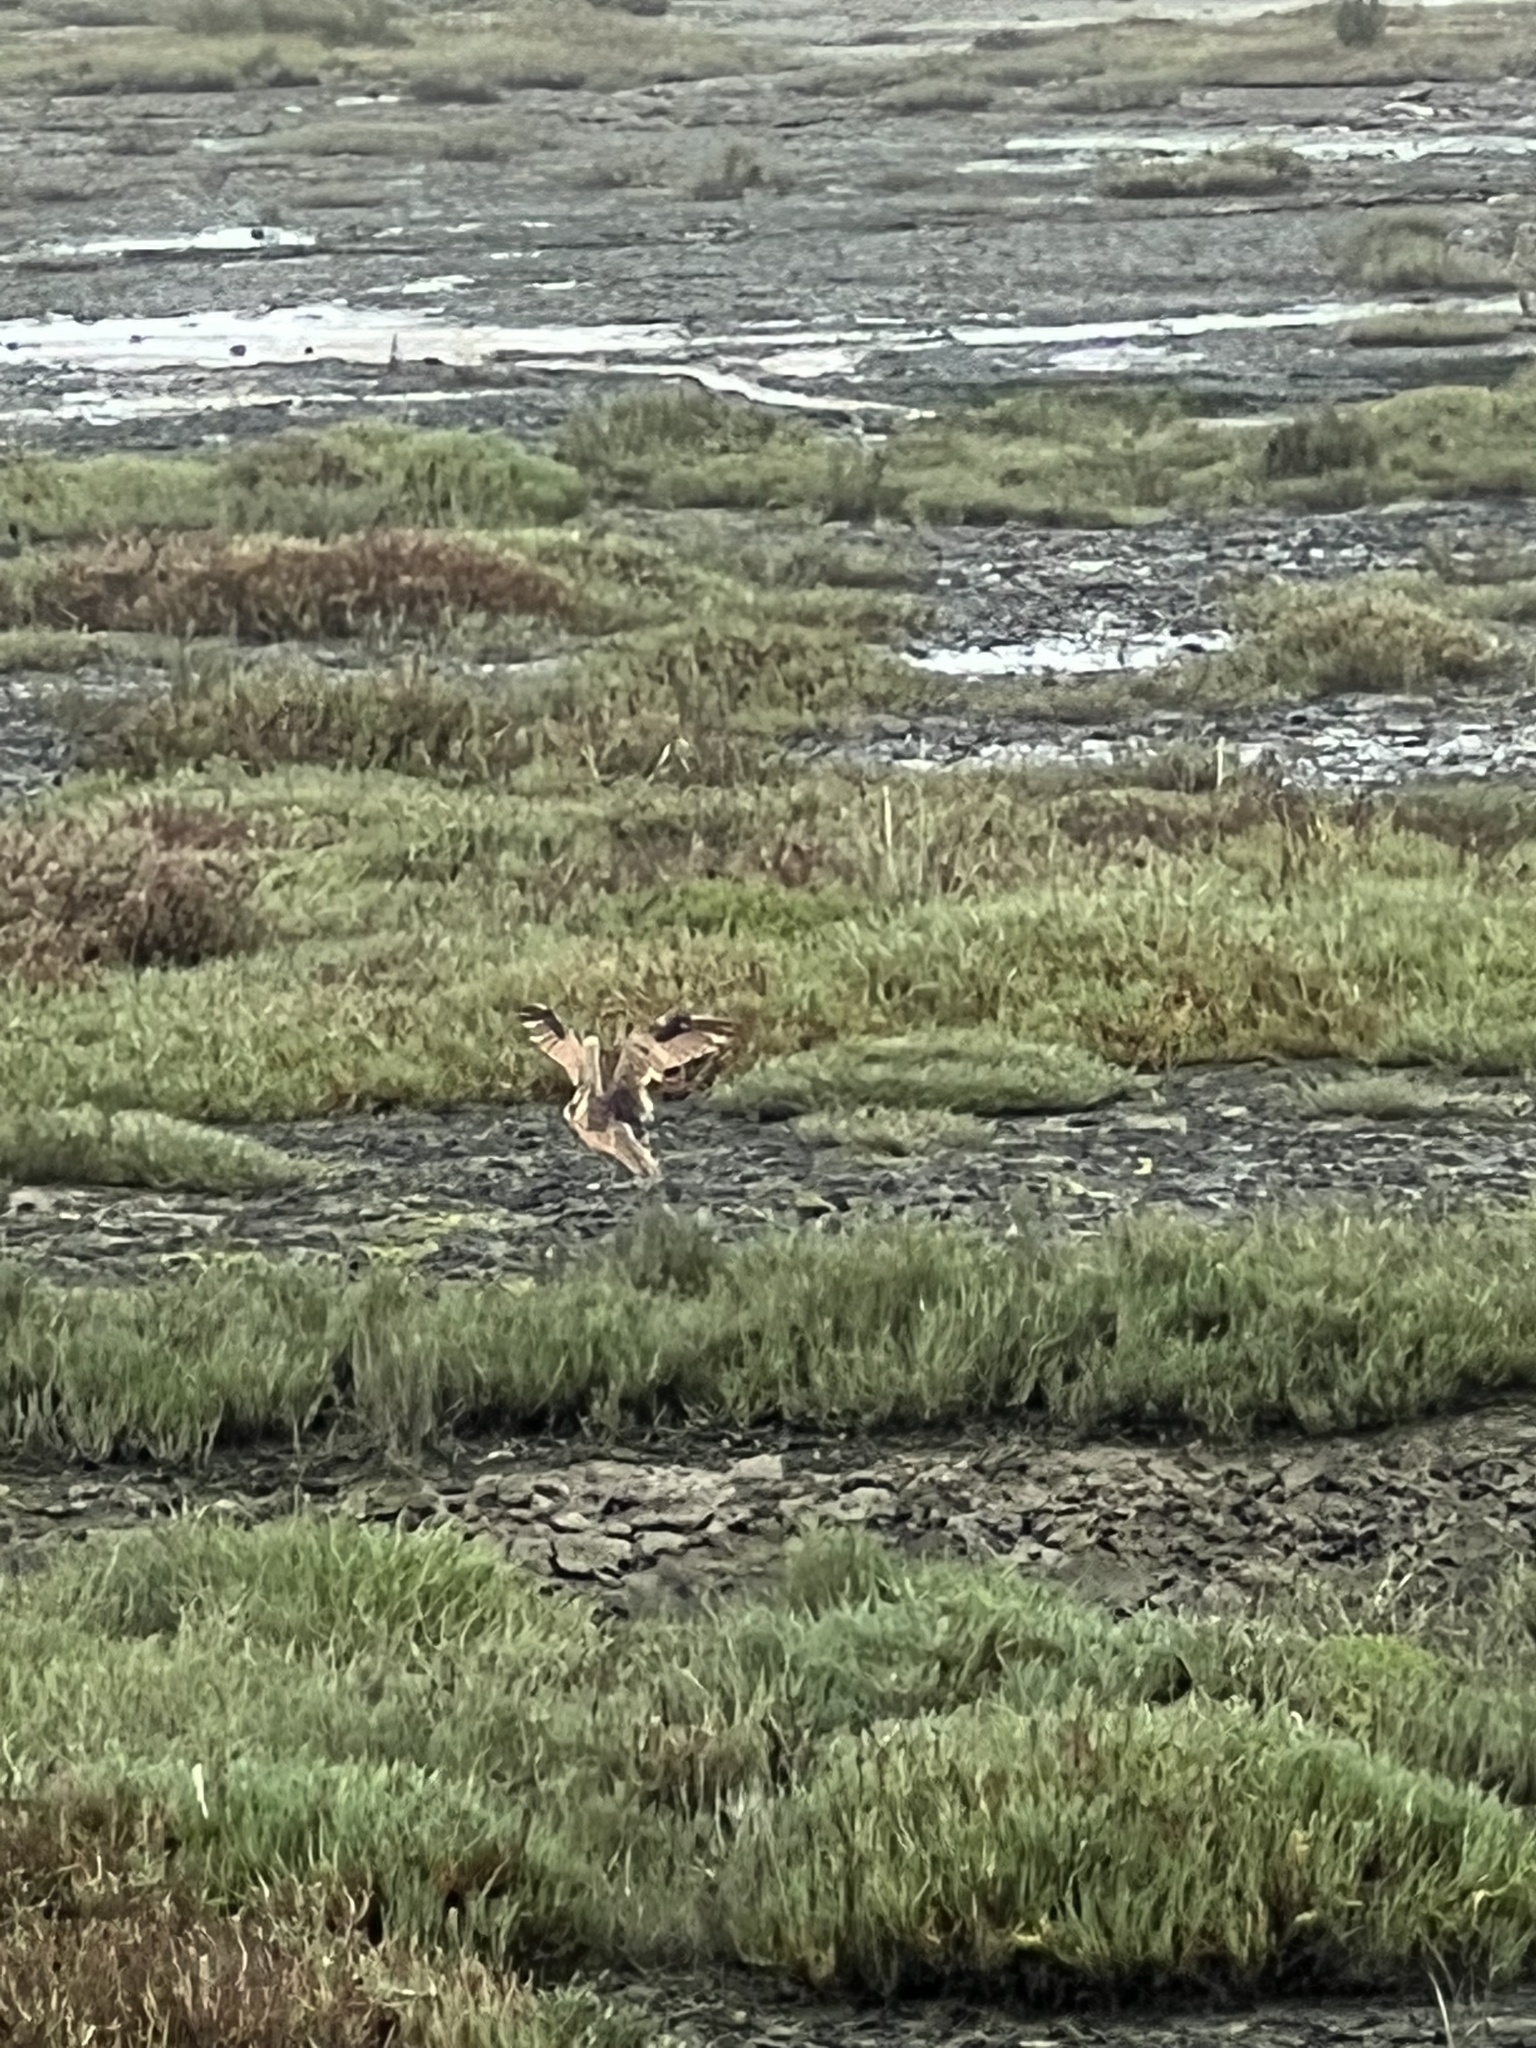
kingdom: Animalia
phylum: Chordata
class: Aves
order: Charadriiformes
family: Scolopacidae
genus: Numenius
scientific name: Numenius americanus
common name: Long-billed curlew
